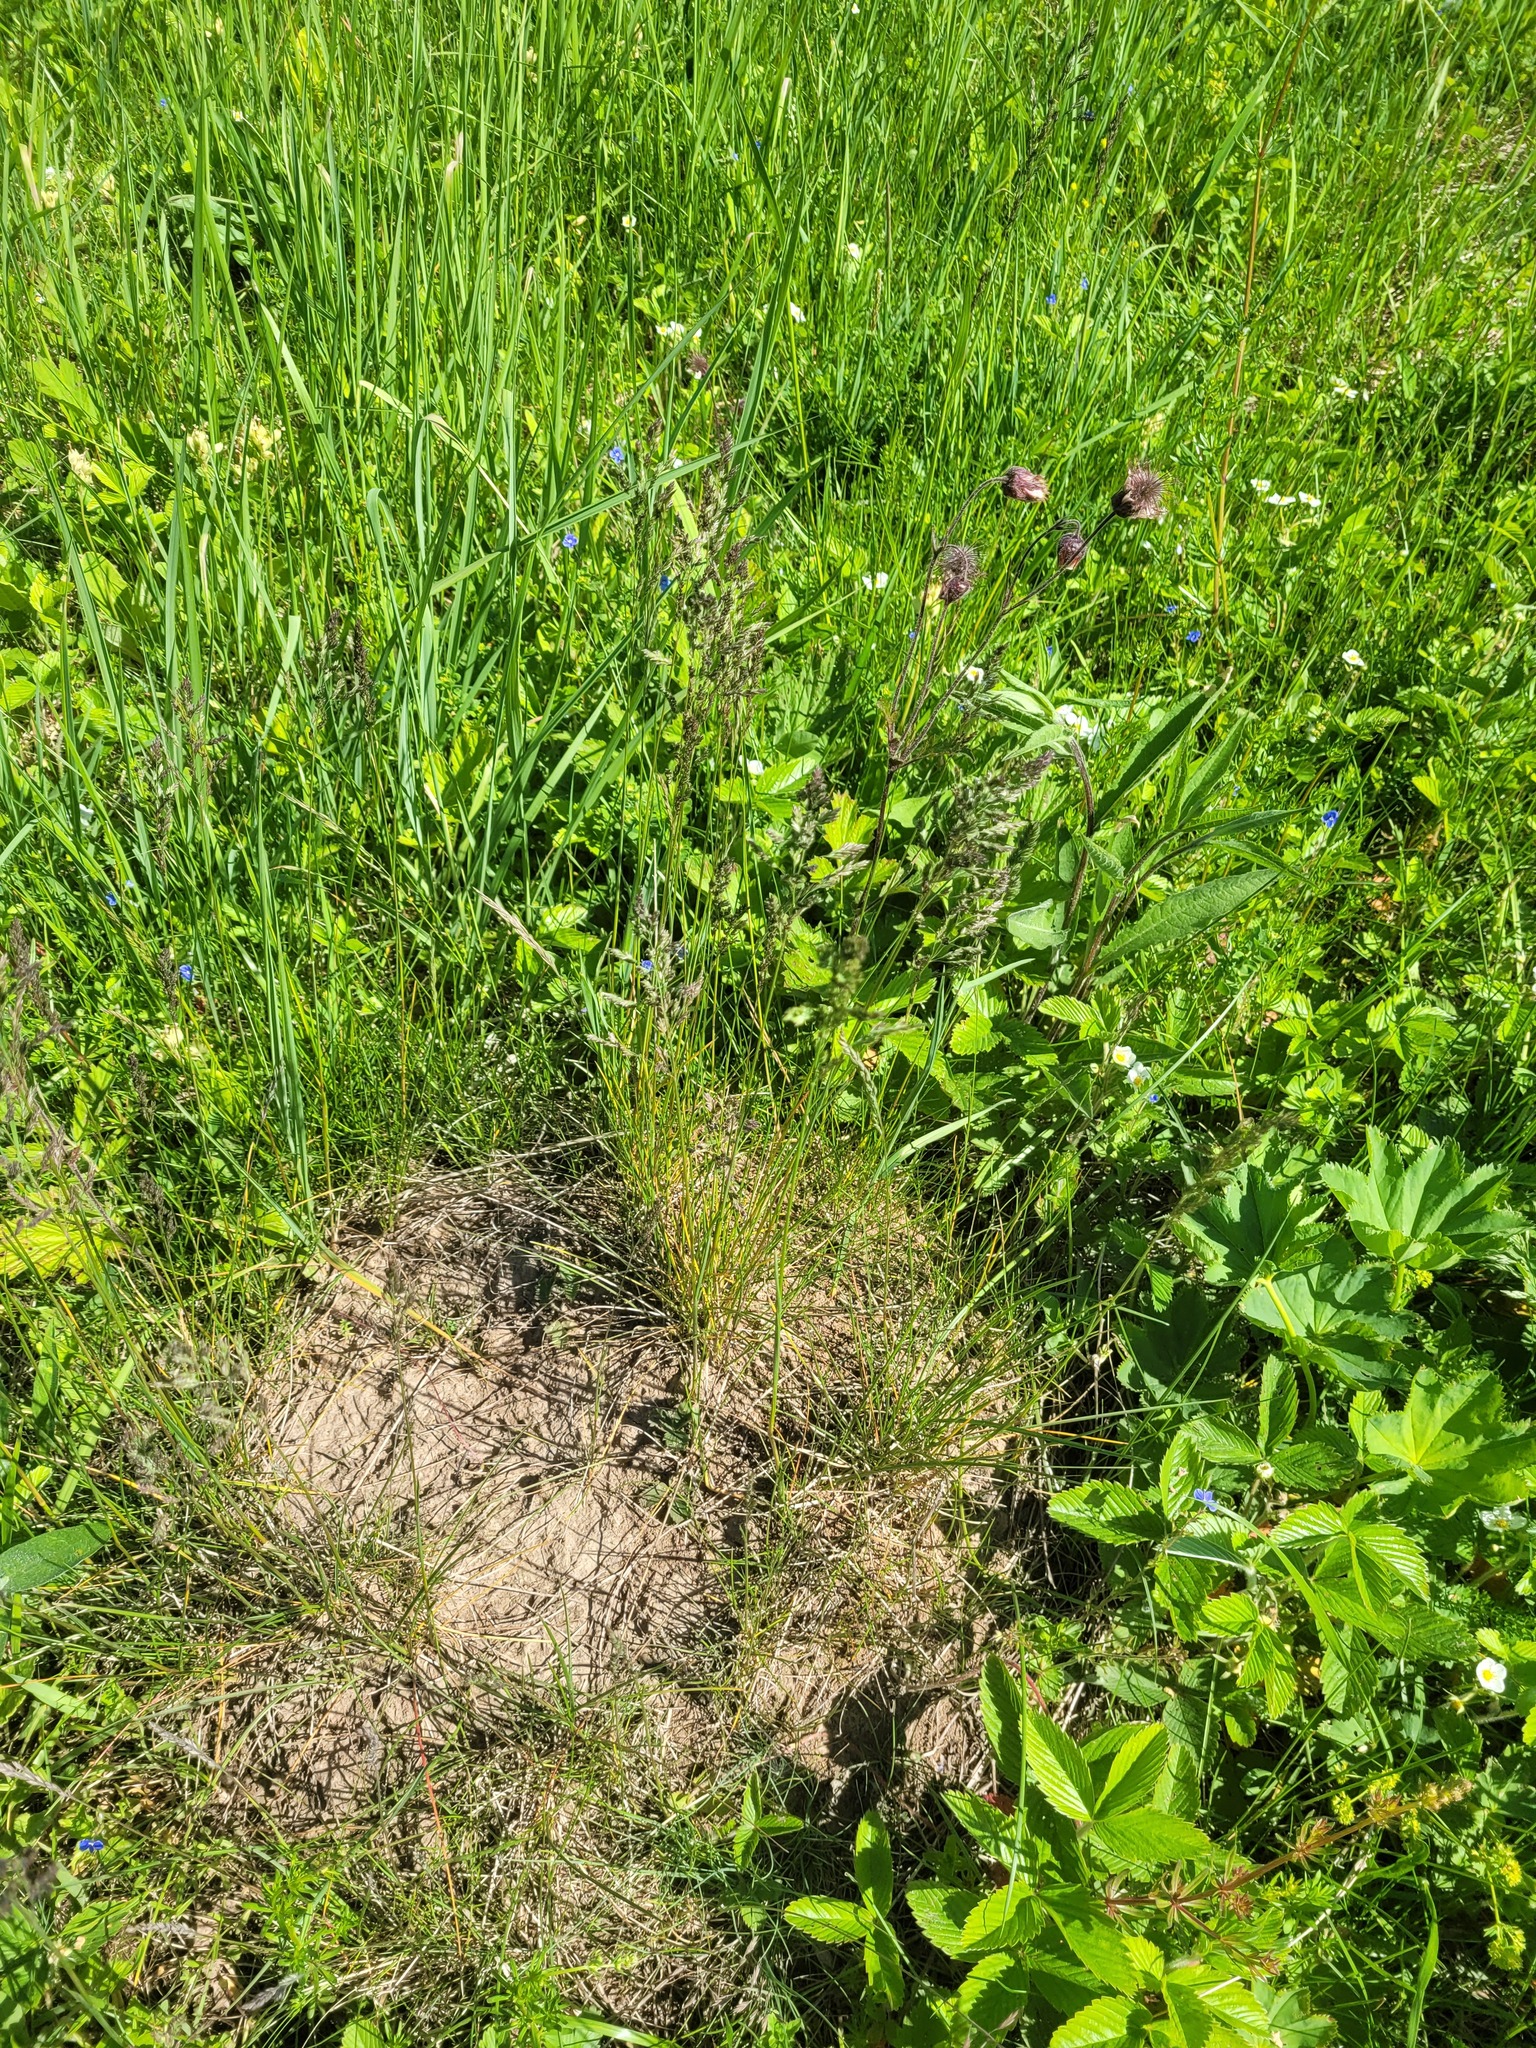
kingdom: Plantae
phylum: Tracheophyta
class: Liliopsida
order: Poales
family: Poaceae
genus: Poa
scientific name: Poa angustifolia
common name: Narrow-leaved meadow-grass
